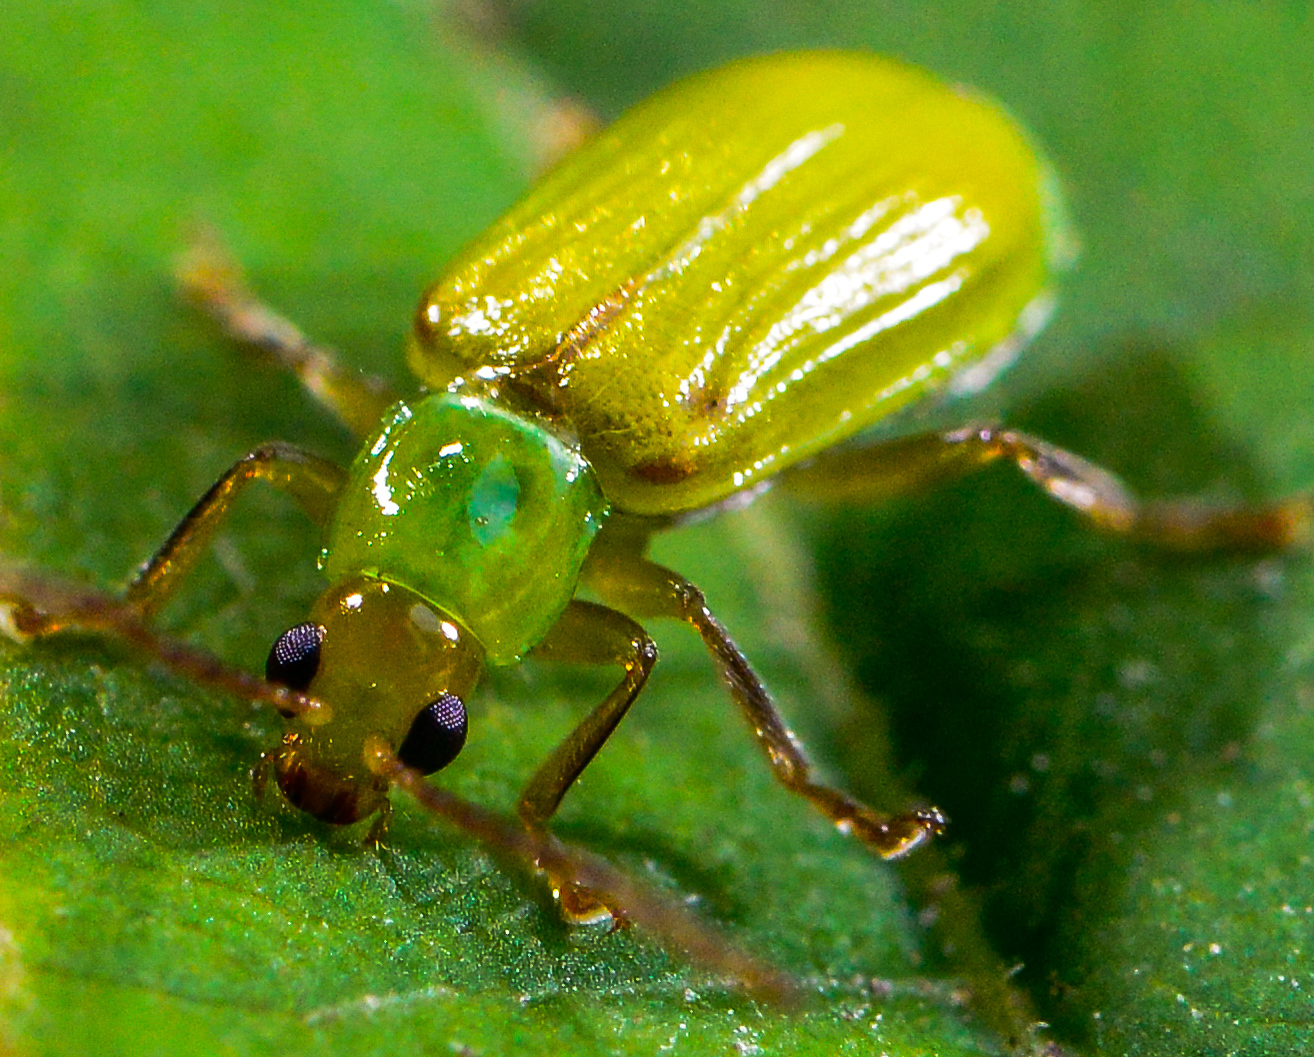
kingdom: Animalia
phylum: Arthropoda
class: Insecta
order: Coleoptera
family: Chrysomelidae
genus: Diabrotica
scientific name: Diabrotica barberi
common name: Northern corn rootworm
